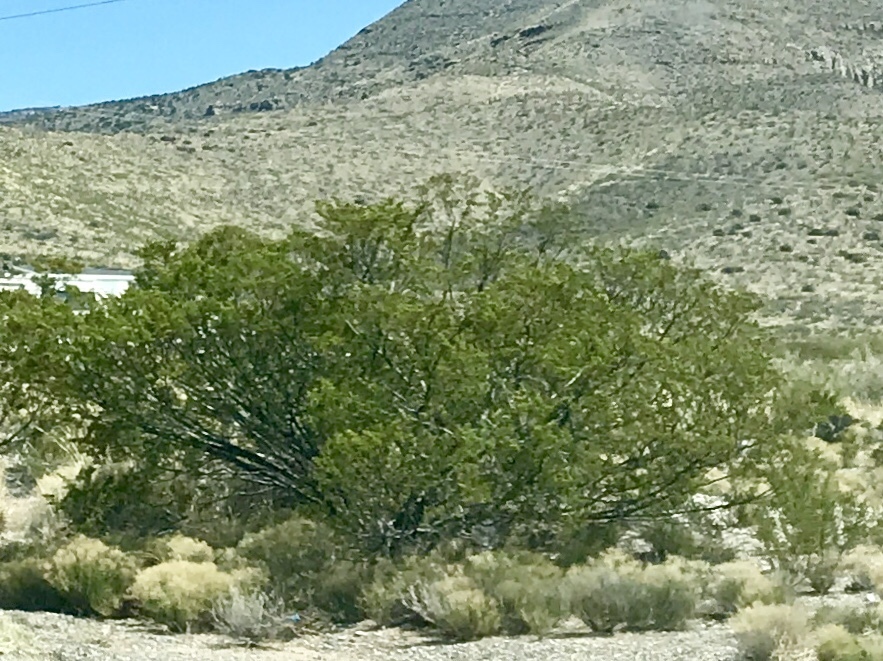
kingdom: Plantae
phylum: Tracheophyta
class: Magnoliopsida
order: Zygophyllales
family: Zygophyllaceae
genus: Larrea
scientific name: Larrea tridentata
